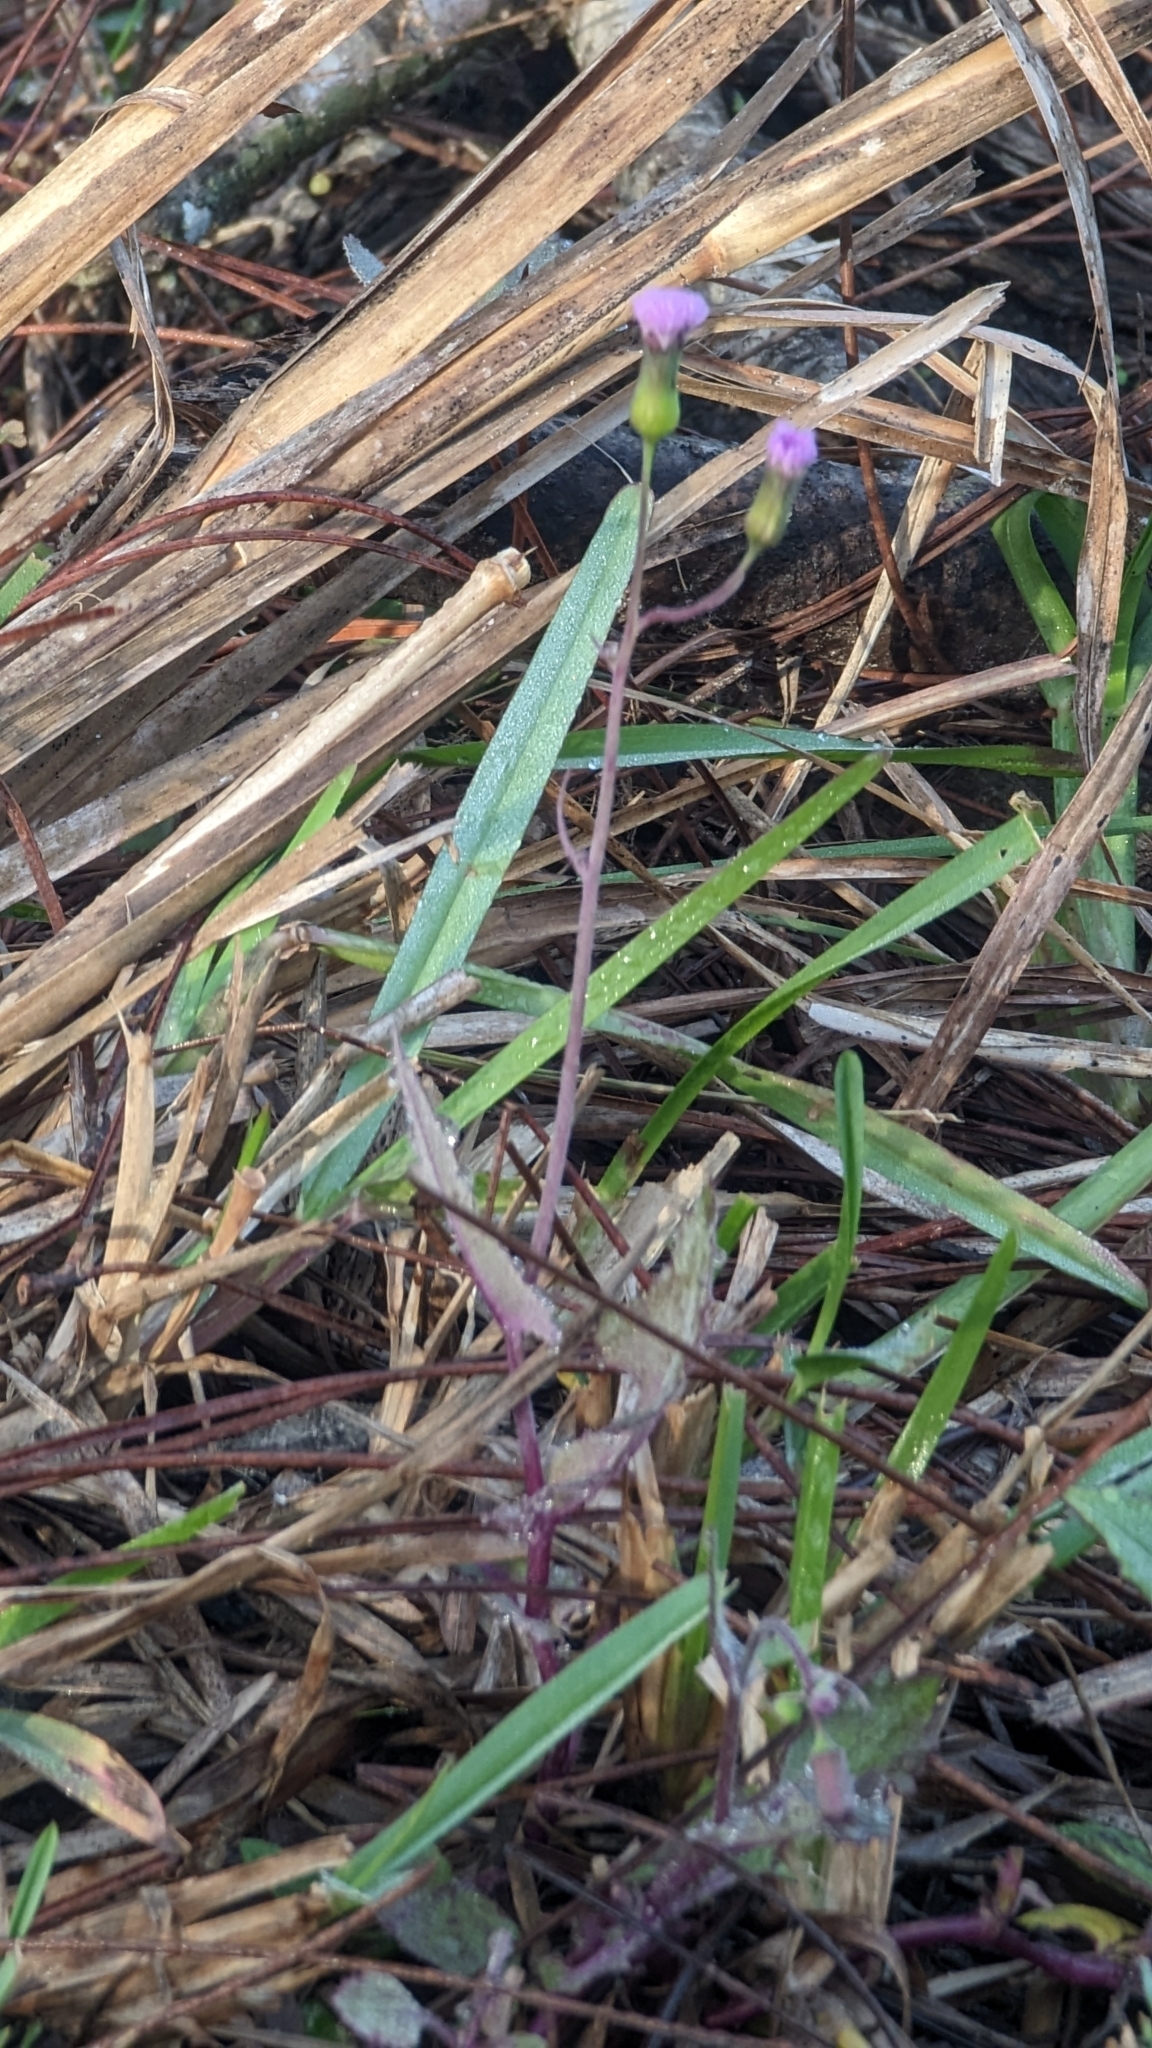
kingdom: Plantae
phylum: Tracheophyta
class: Magnoliopsida
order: Asterales
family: Asteraceae
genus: Emilia
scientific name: Emilia sonchifolia
